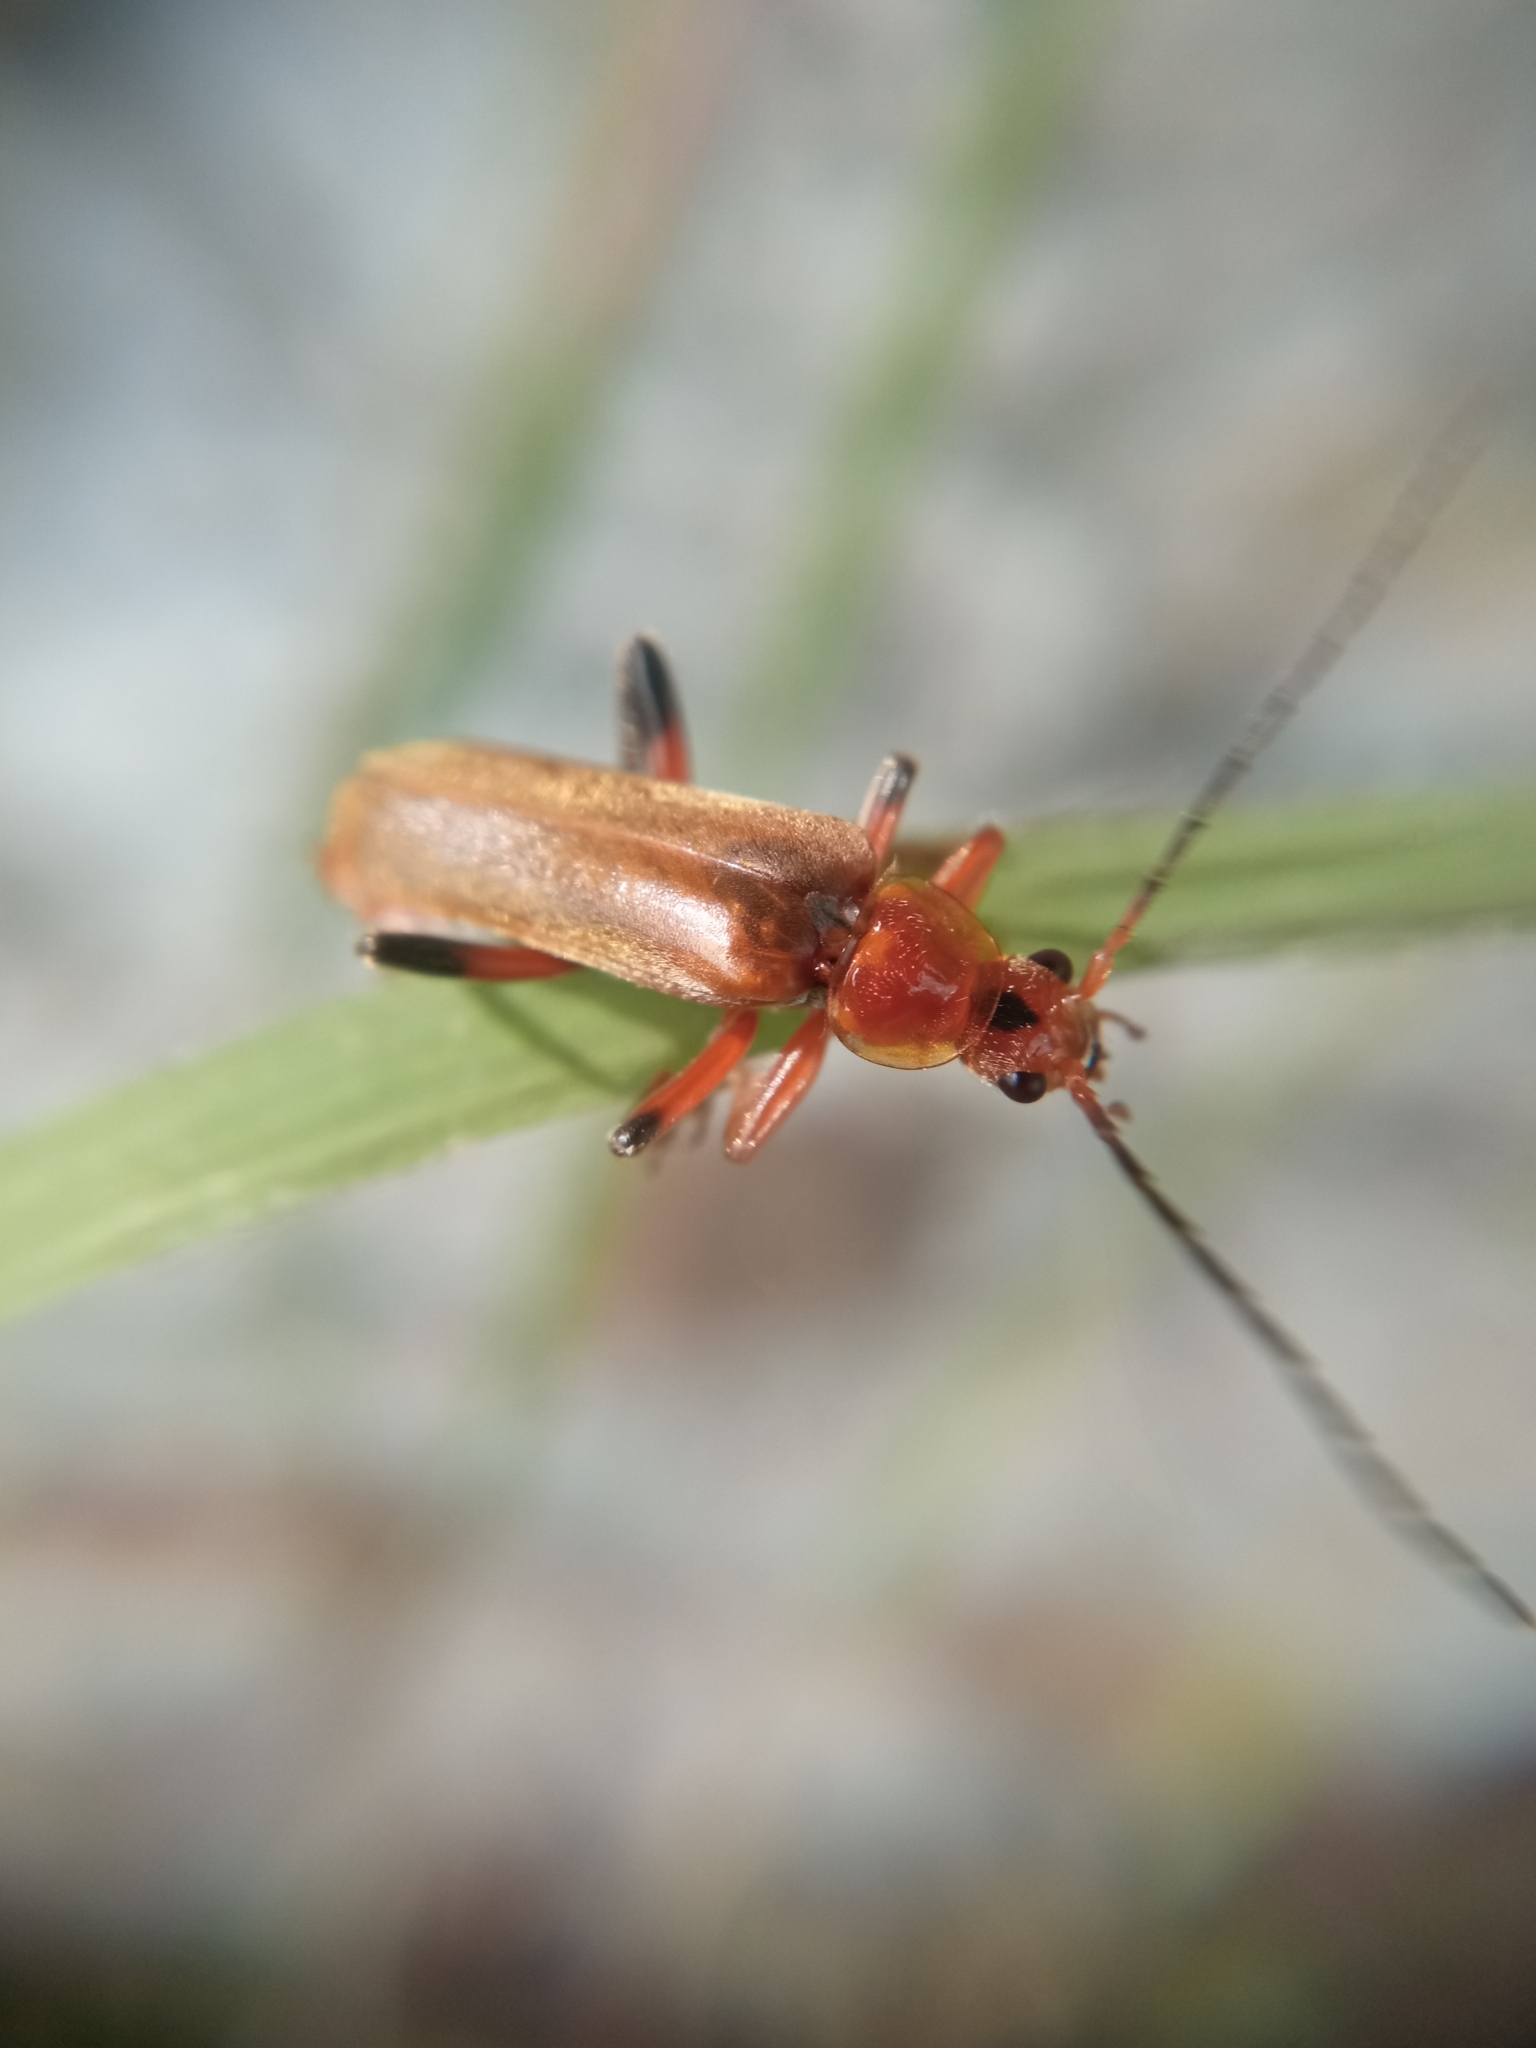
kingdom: Animalia
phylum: Arthropoda
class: Insecta
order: Coleoptera
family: Cantharidae
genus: Cantharis
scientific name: Cantharis livida
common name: Livid soldier beetle
